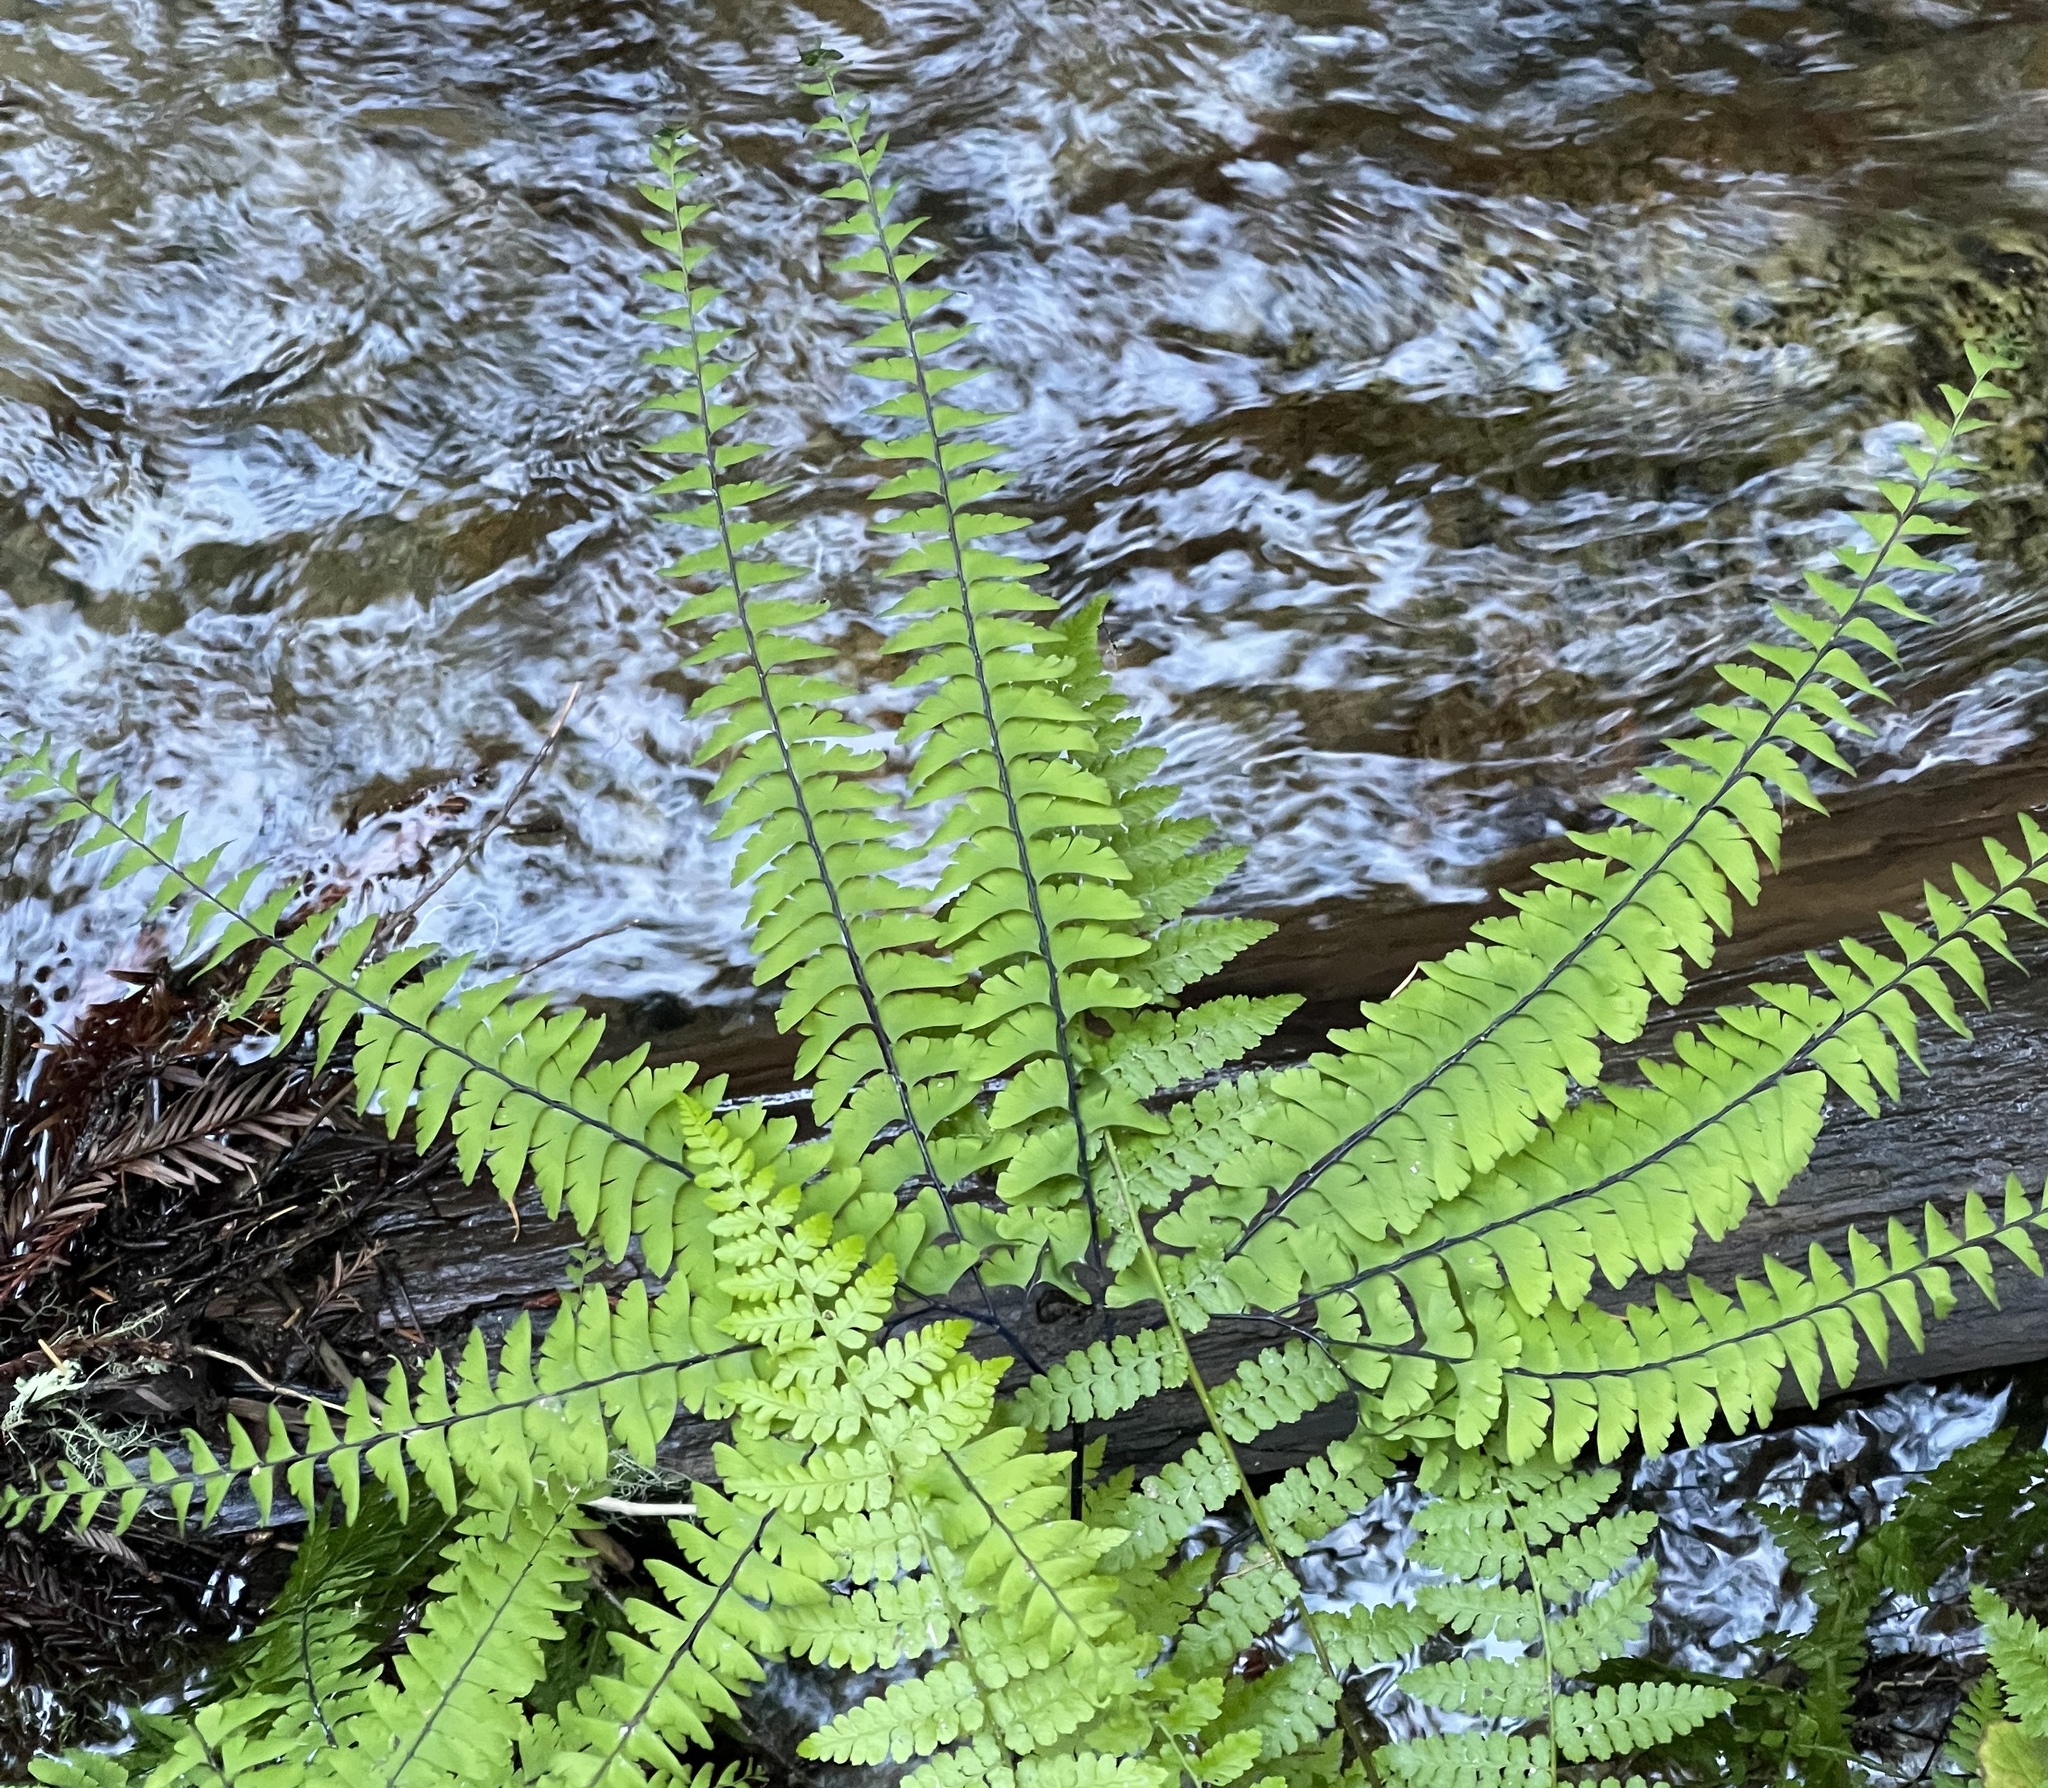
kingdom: Plantae
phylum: Tracheophyta
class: Polypodiopsida
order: Polypodiales
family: Pteridaceae
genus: Adiantum
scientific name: Adiantum aleuticum
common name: Aleutian maidenhair fern
